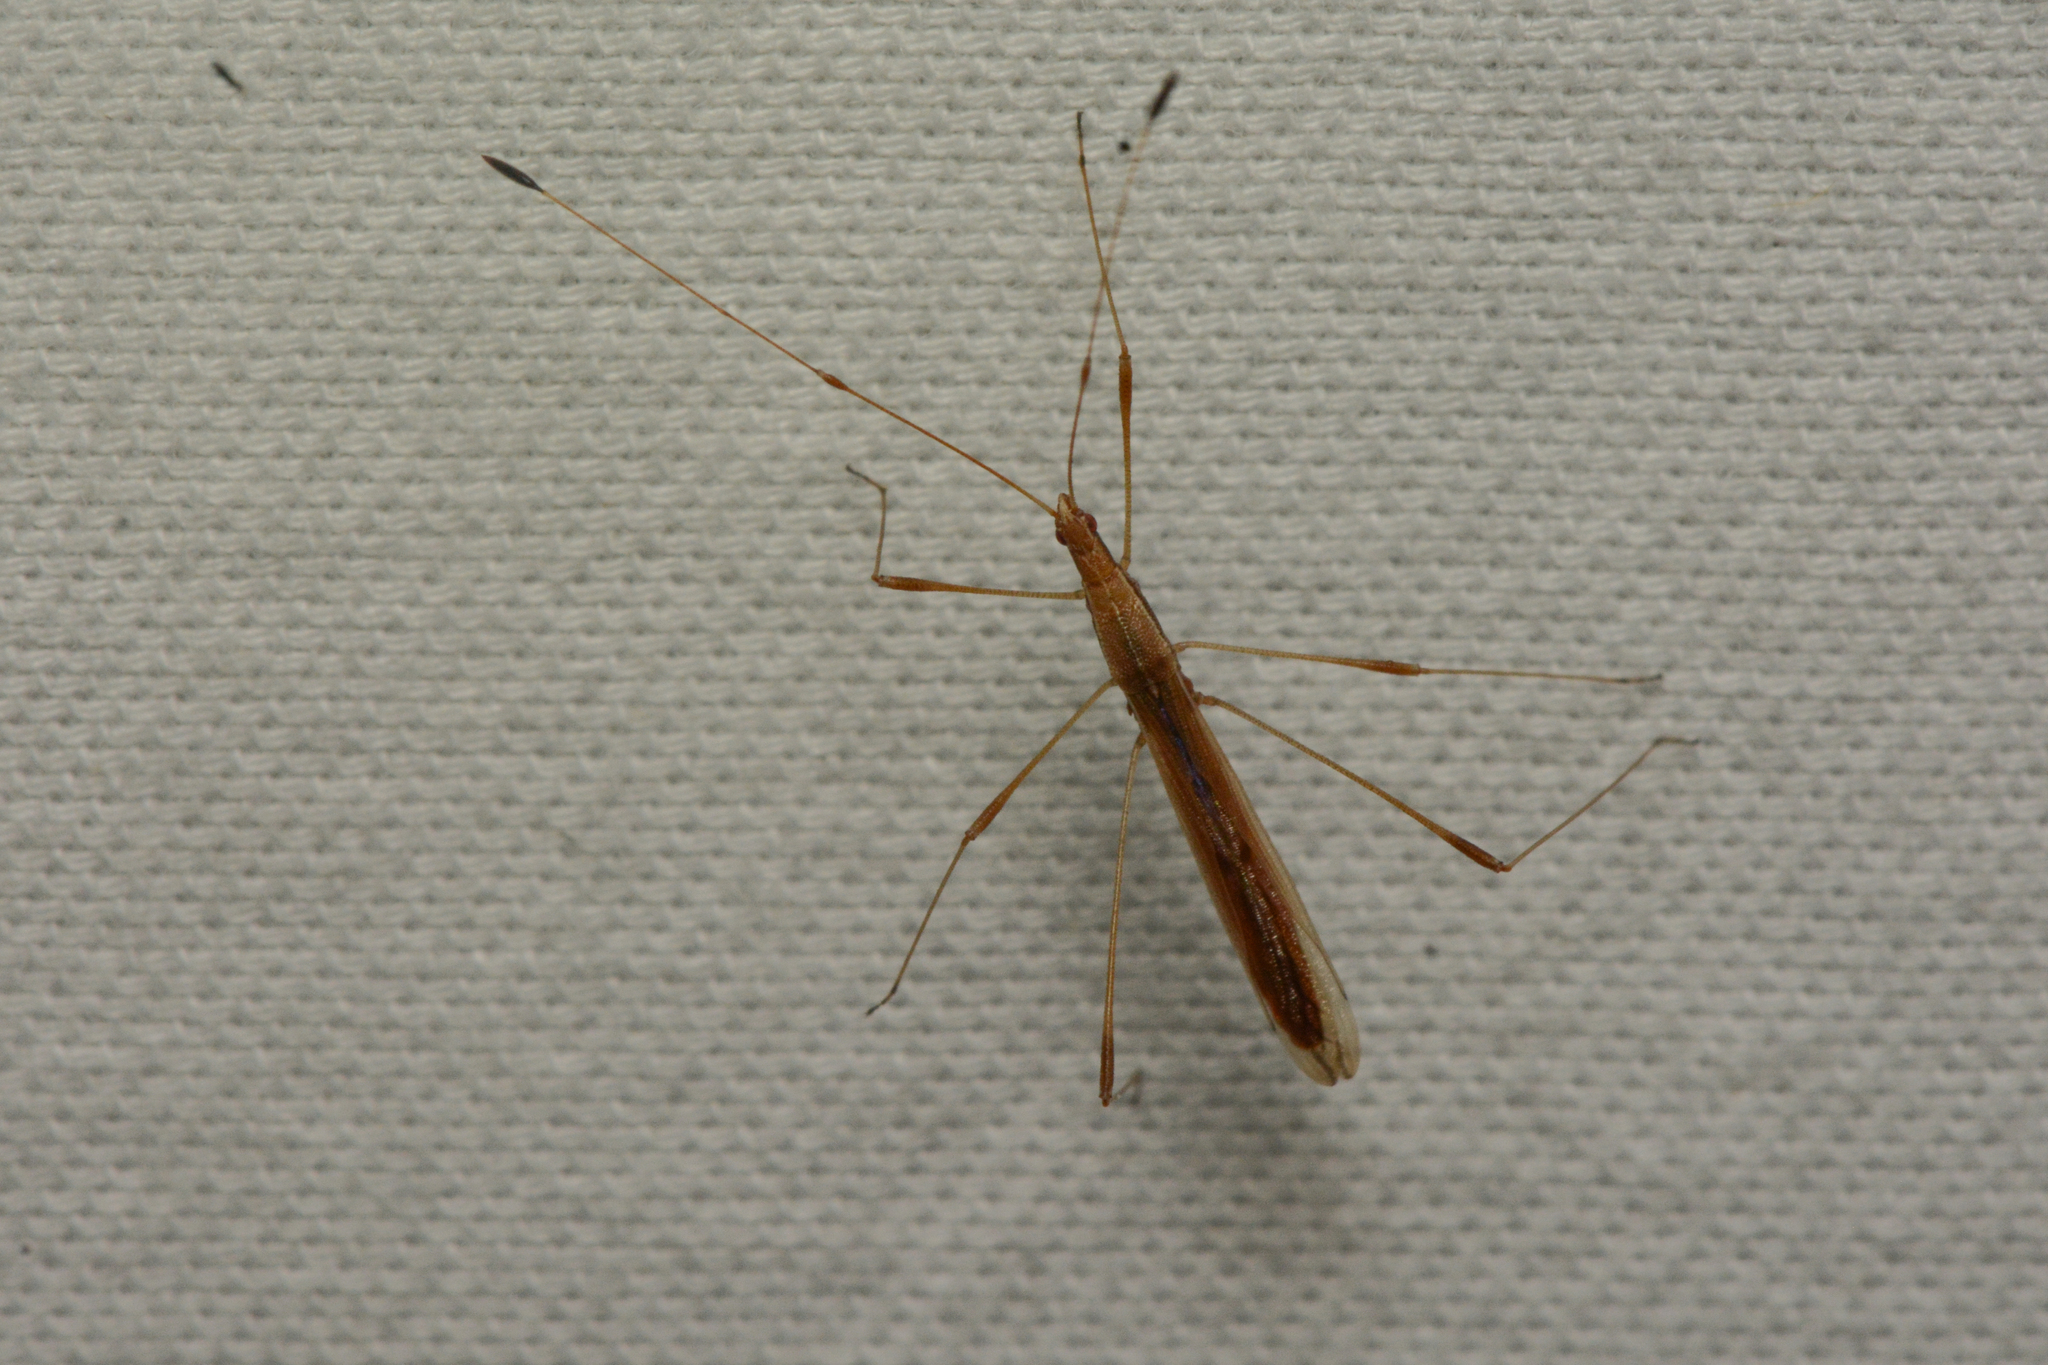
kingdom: Animalia
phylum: Arthropoda
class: Insecta
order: Hemiptera
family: Berytidae
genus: Neoneides
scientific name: Neoneides muticus
